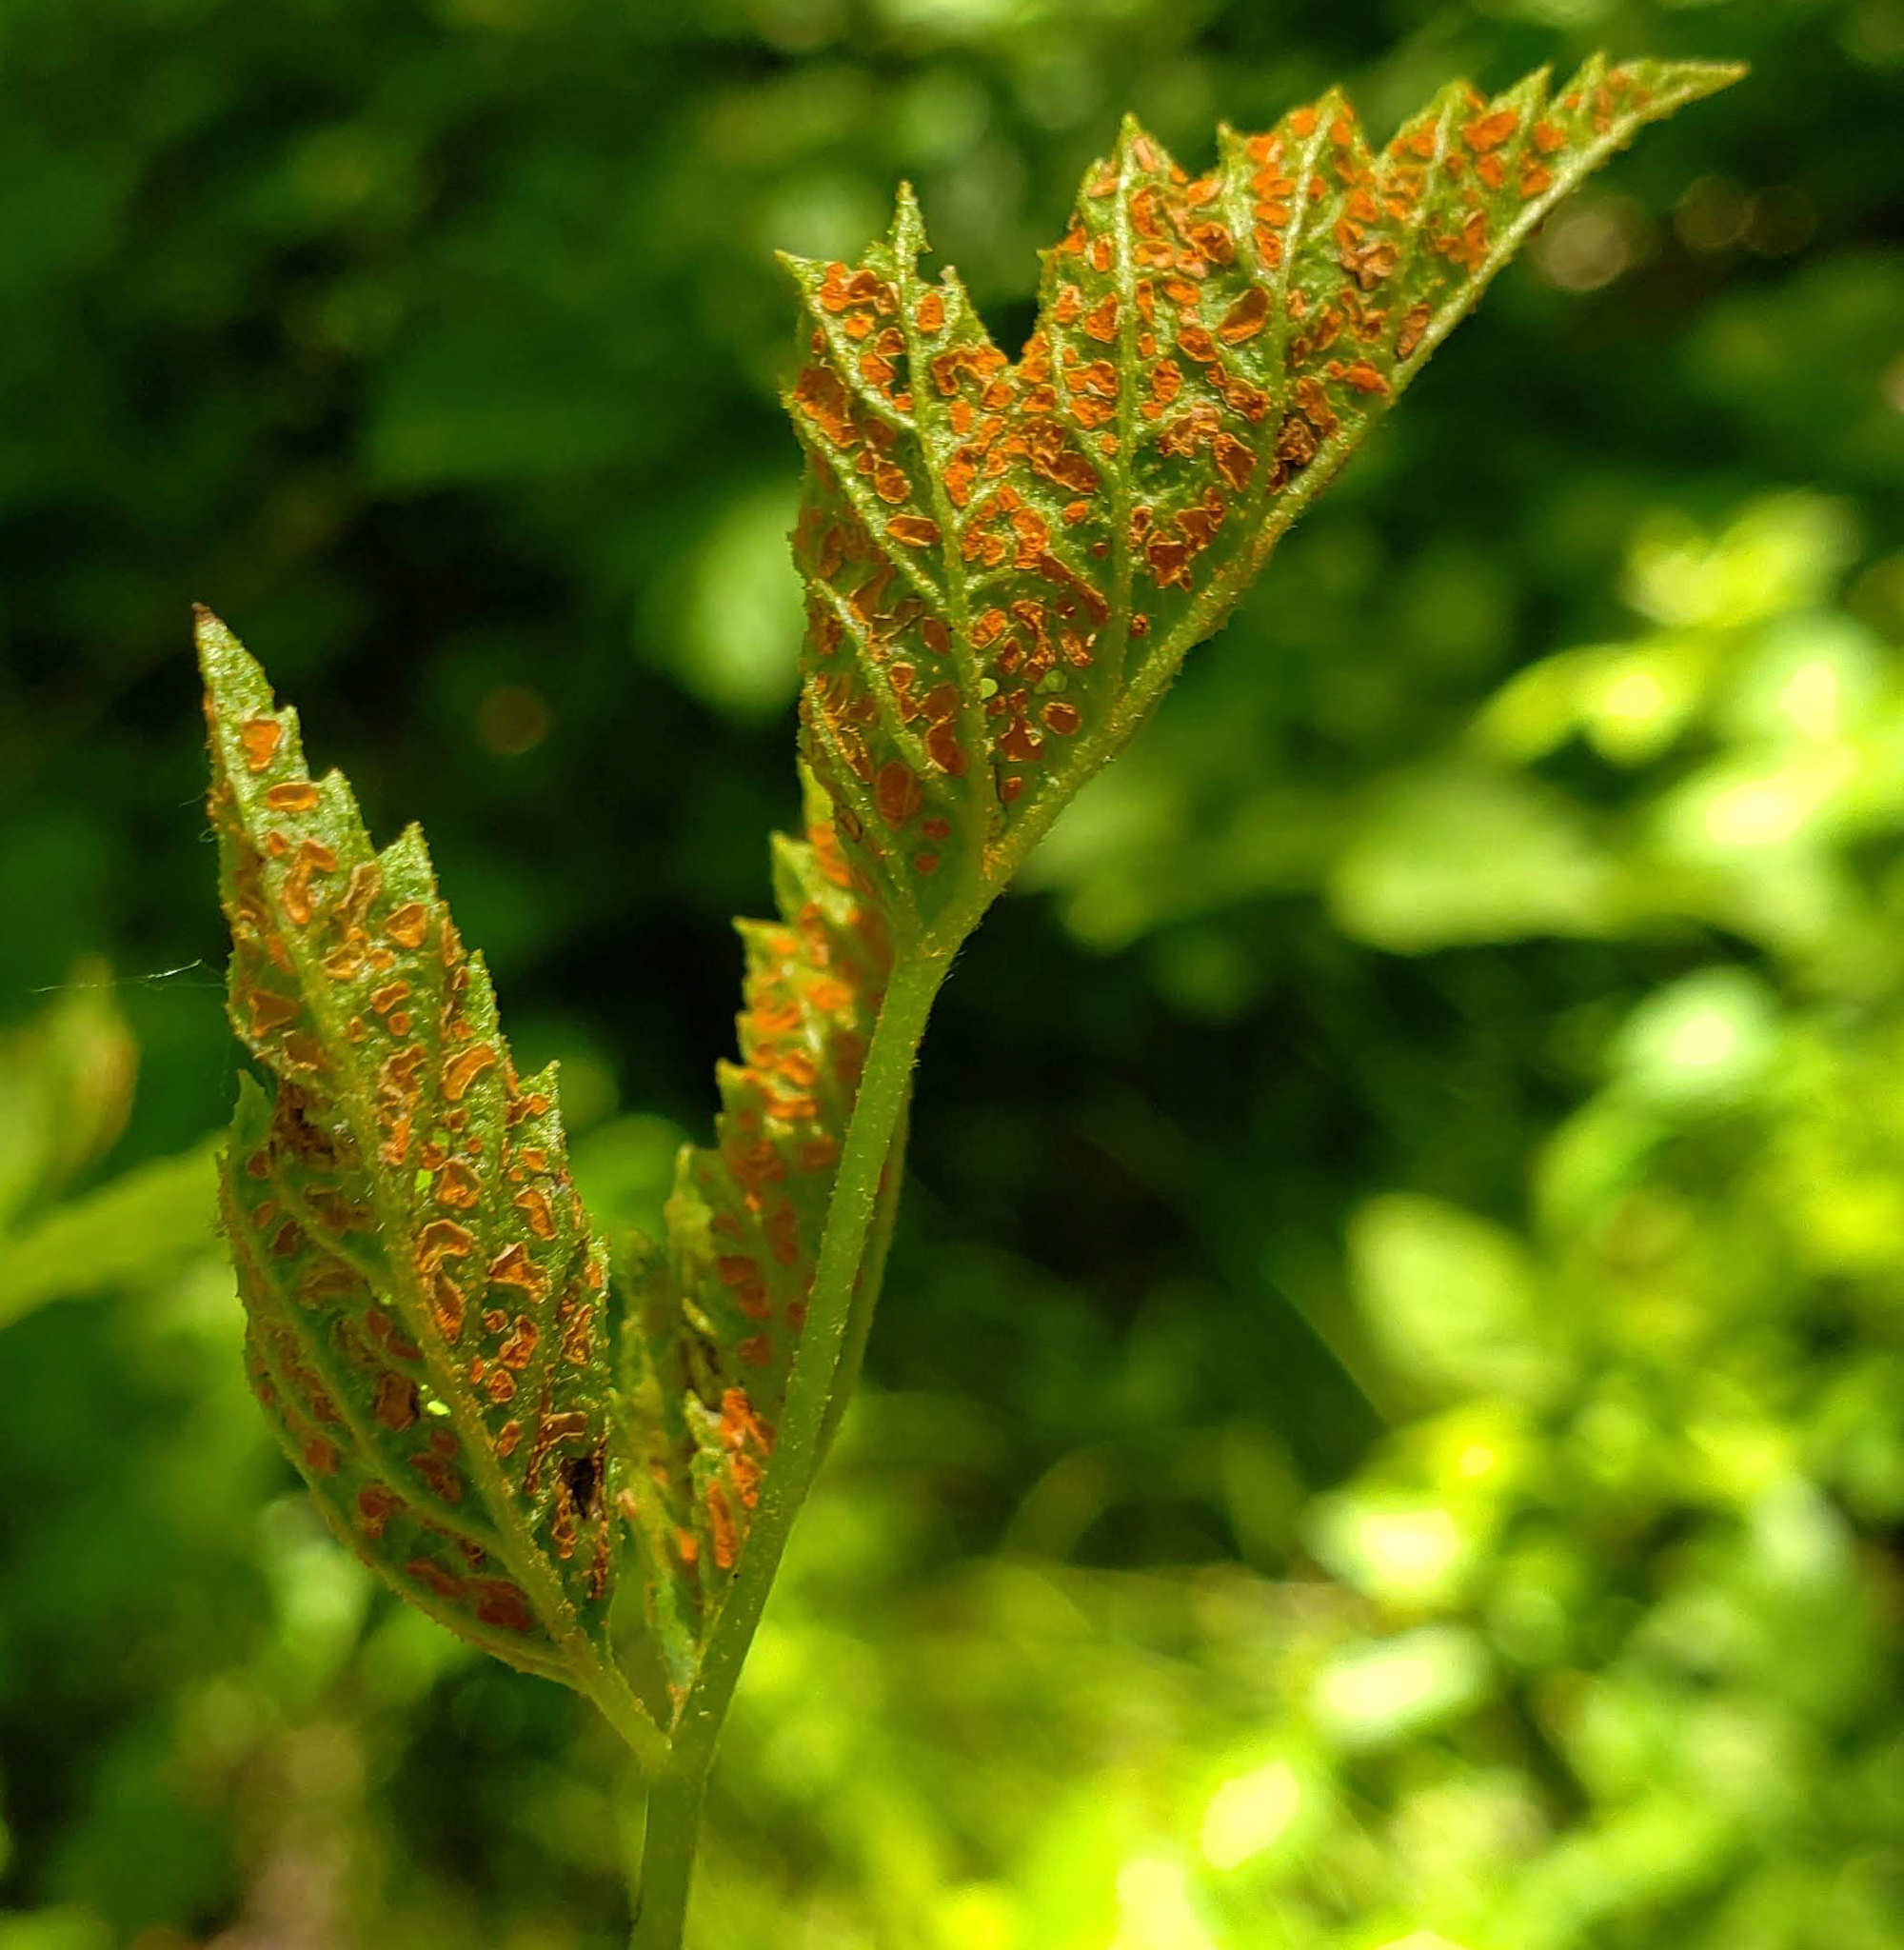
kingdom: Fungi
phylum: Basidiomycota
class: Pucciniomycetes
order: Pucciniales
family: Phragmidiaceae
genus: Arthuriomyces
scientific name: Arthuriomyces peckianus
